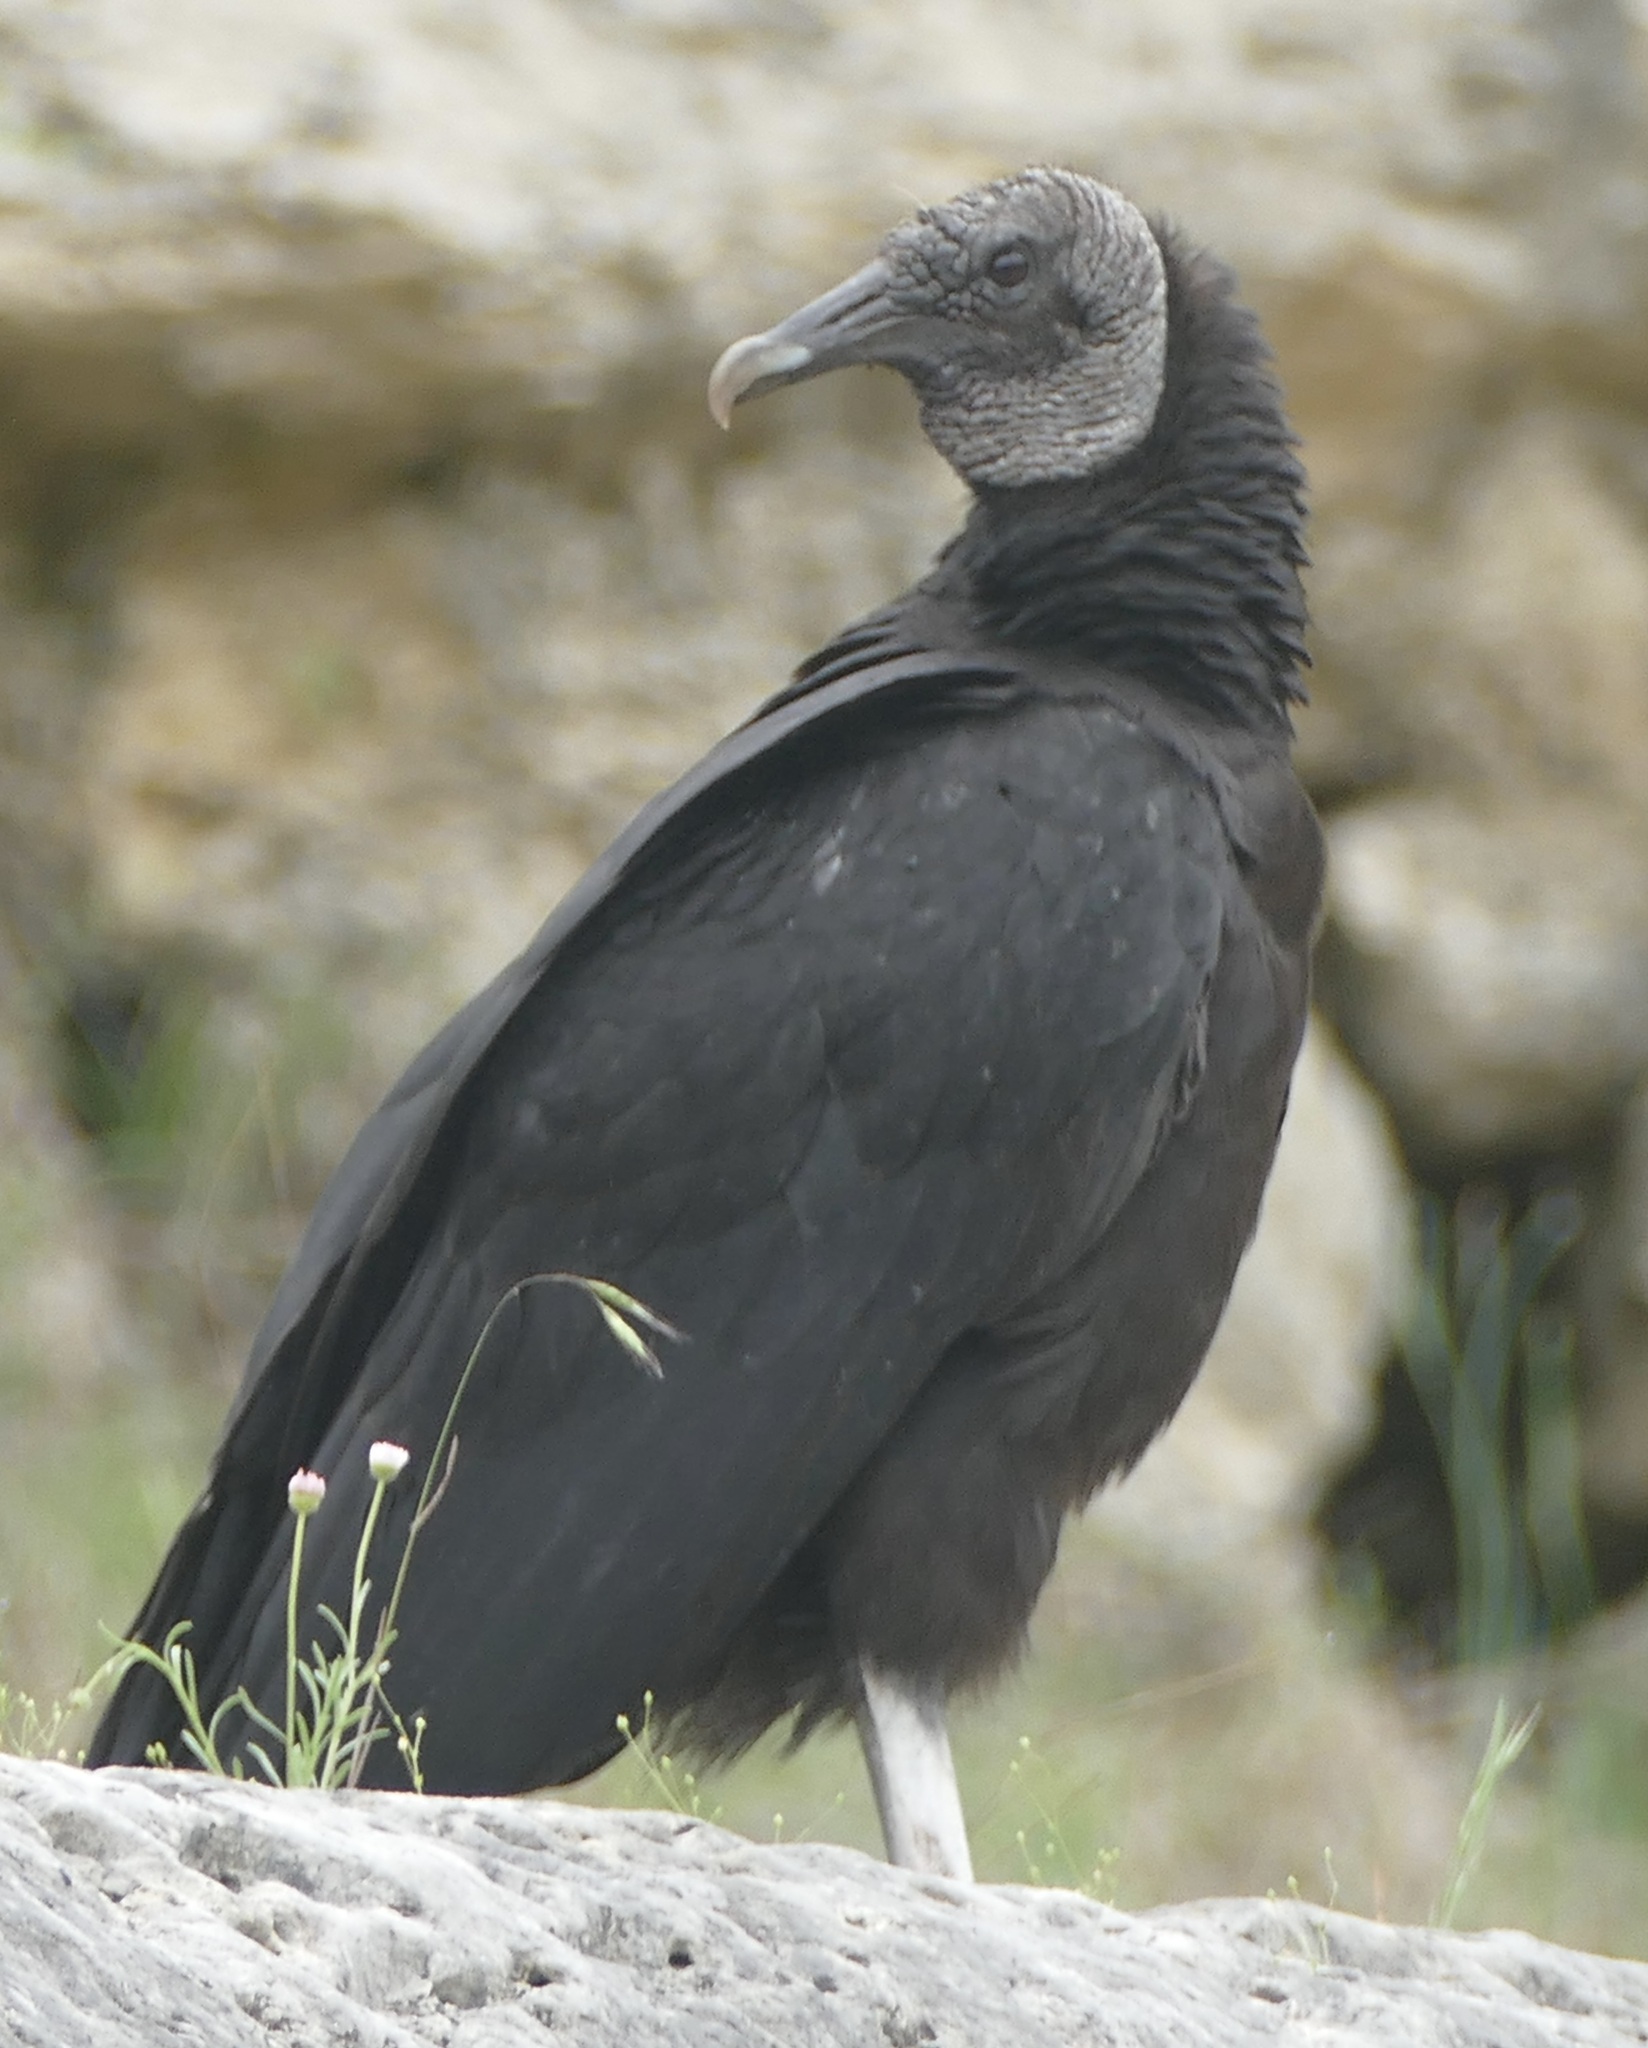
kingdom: Animalia
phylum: Chordata
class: Aves
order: Accipitriformes
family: Cathartidae
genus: Coragyps
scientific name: Coragyps atratus
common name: Black vulture
